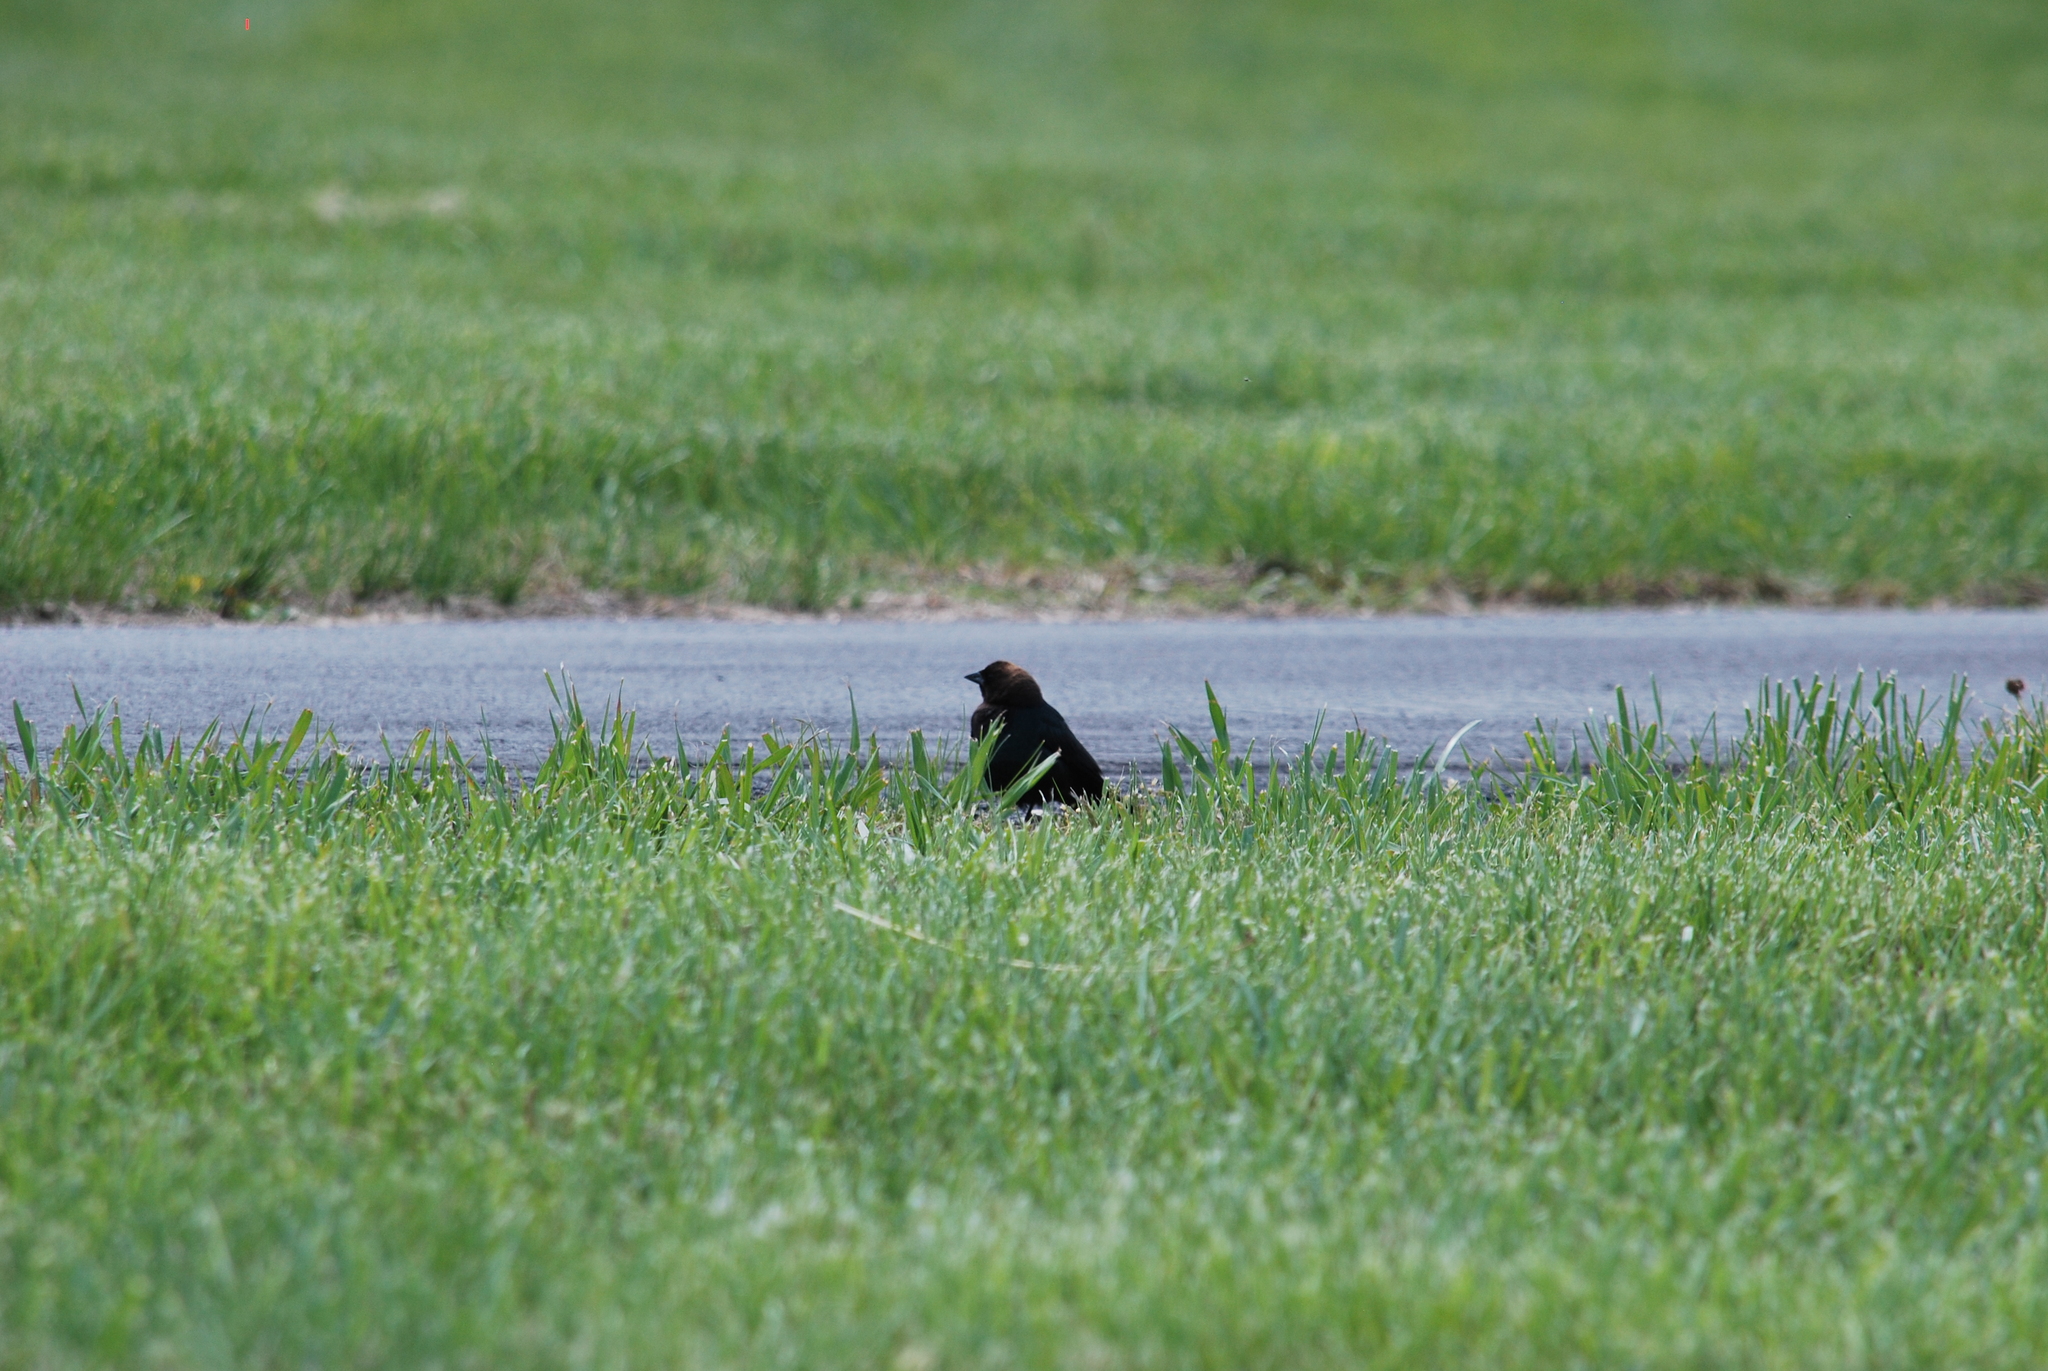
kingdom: Animalia
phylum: Chordata
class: Aves
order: Passeriformes
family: Icteridae
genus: Molothrus
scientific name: Molothrus ater
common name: Brown-headed cowbird
